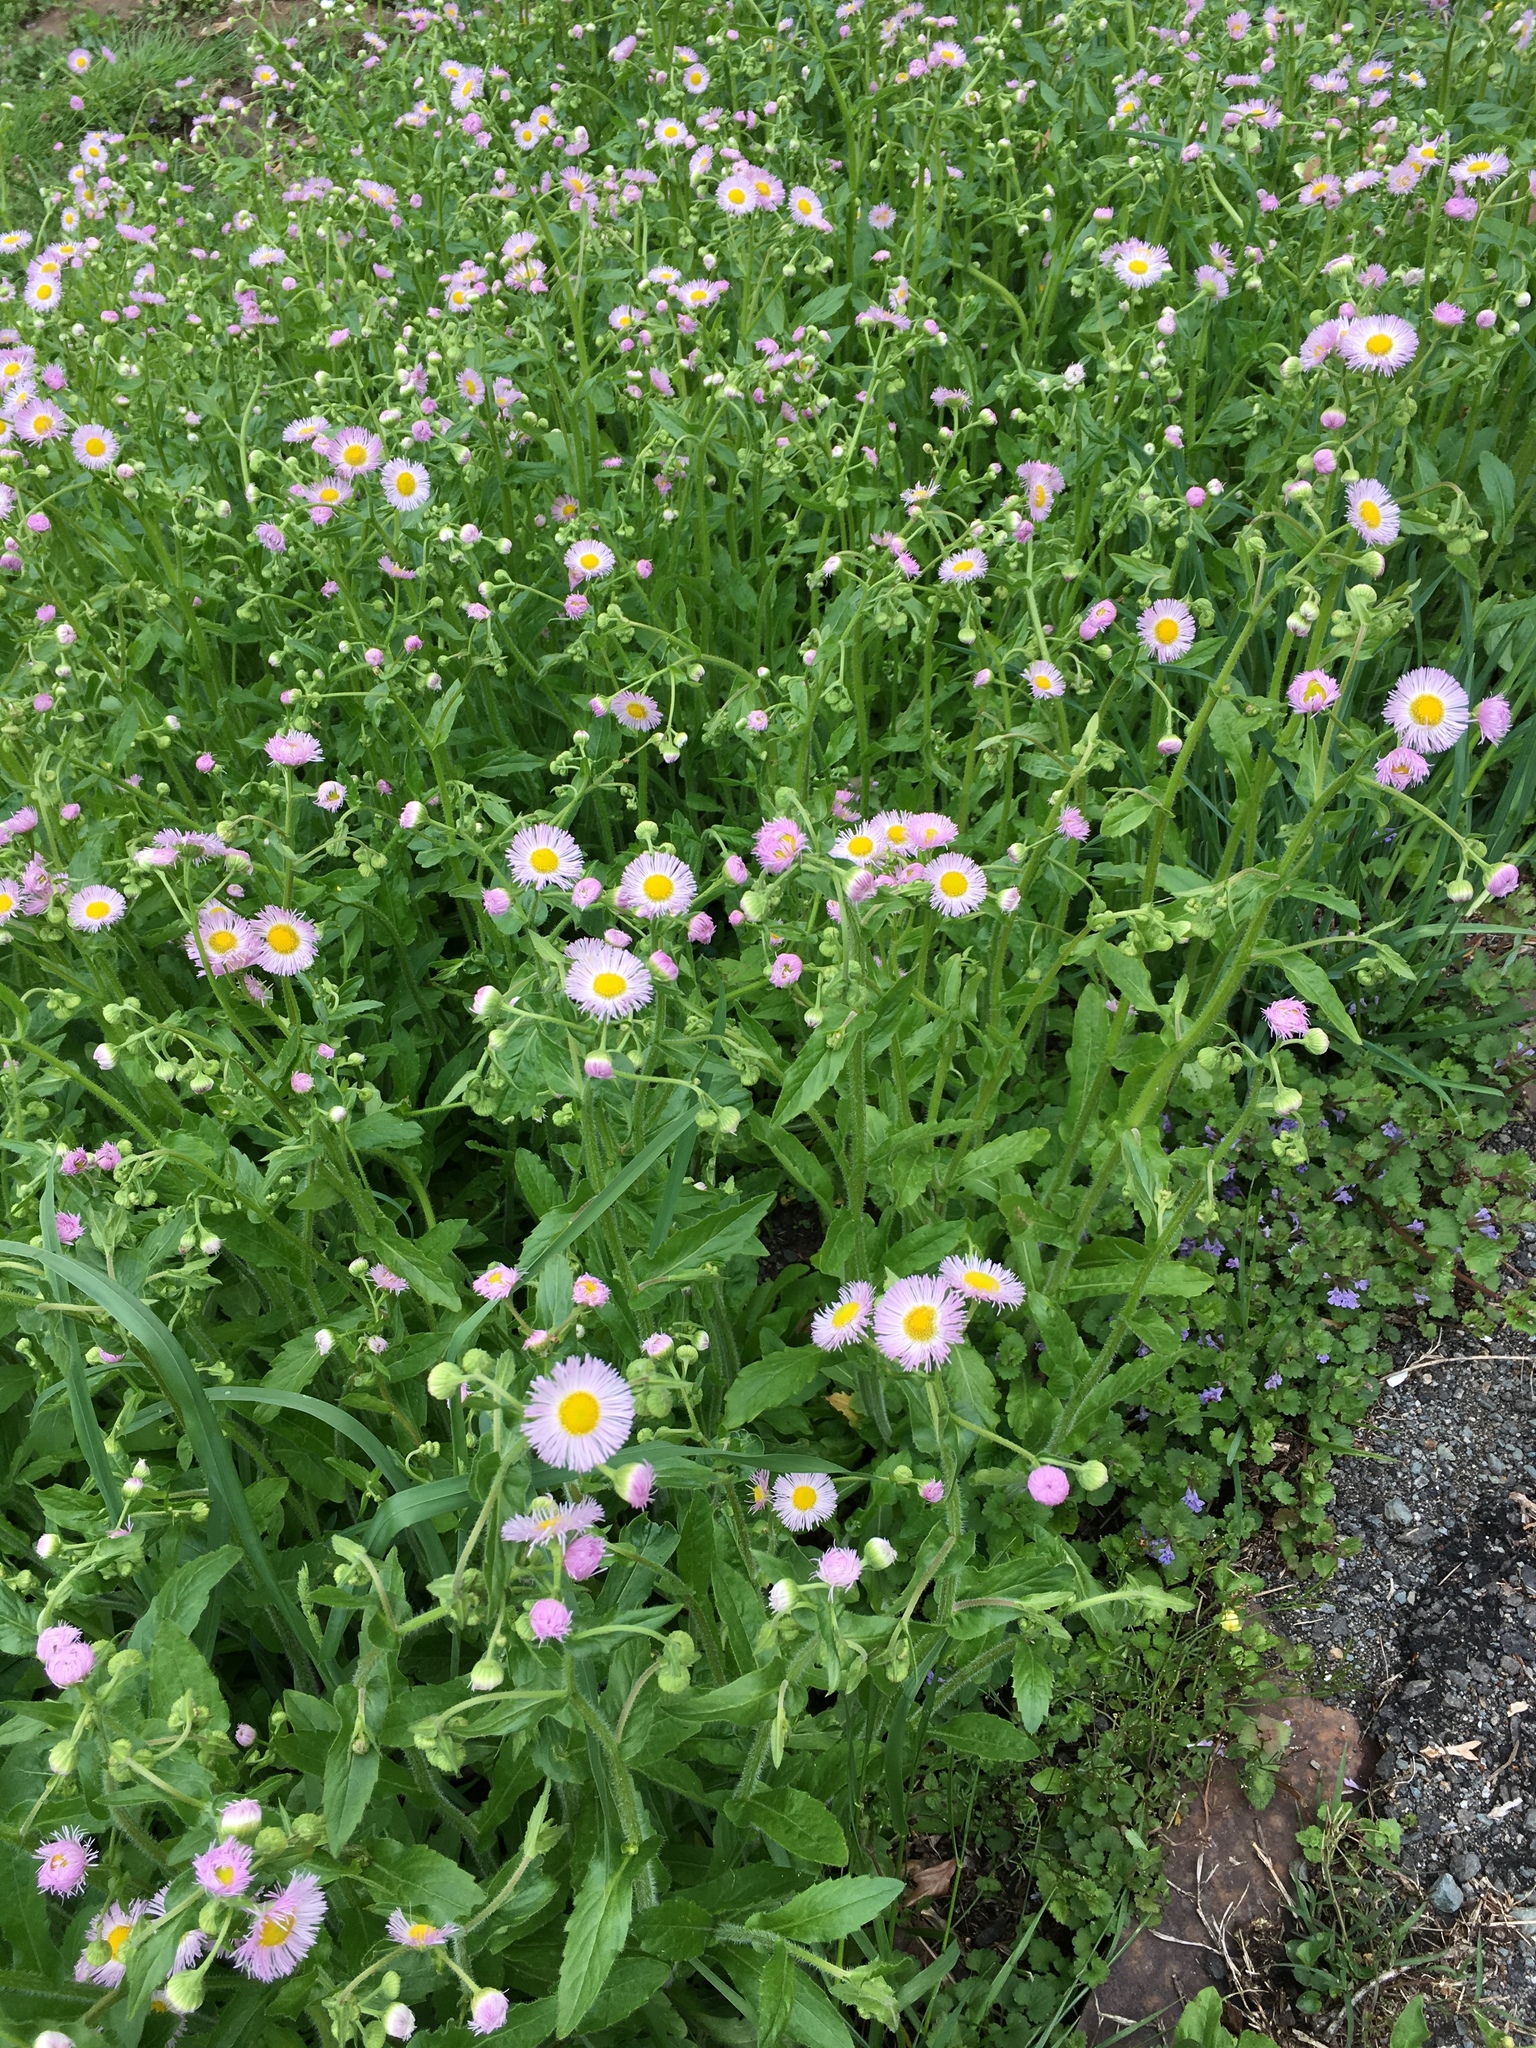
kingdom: Plantae
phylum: Tracheophyta
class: Magnoliopsida
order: Asterales
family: Asteraceae
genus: Erigeron
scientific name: Erigeron philadelphicus
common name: Robin's-plantain
